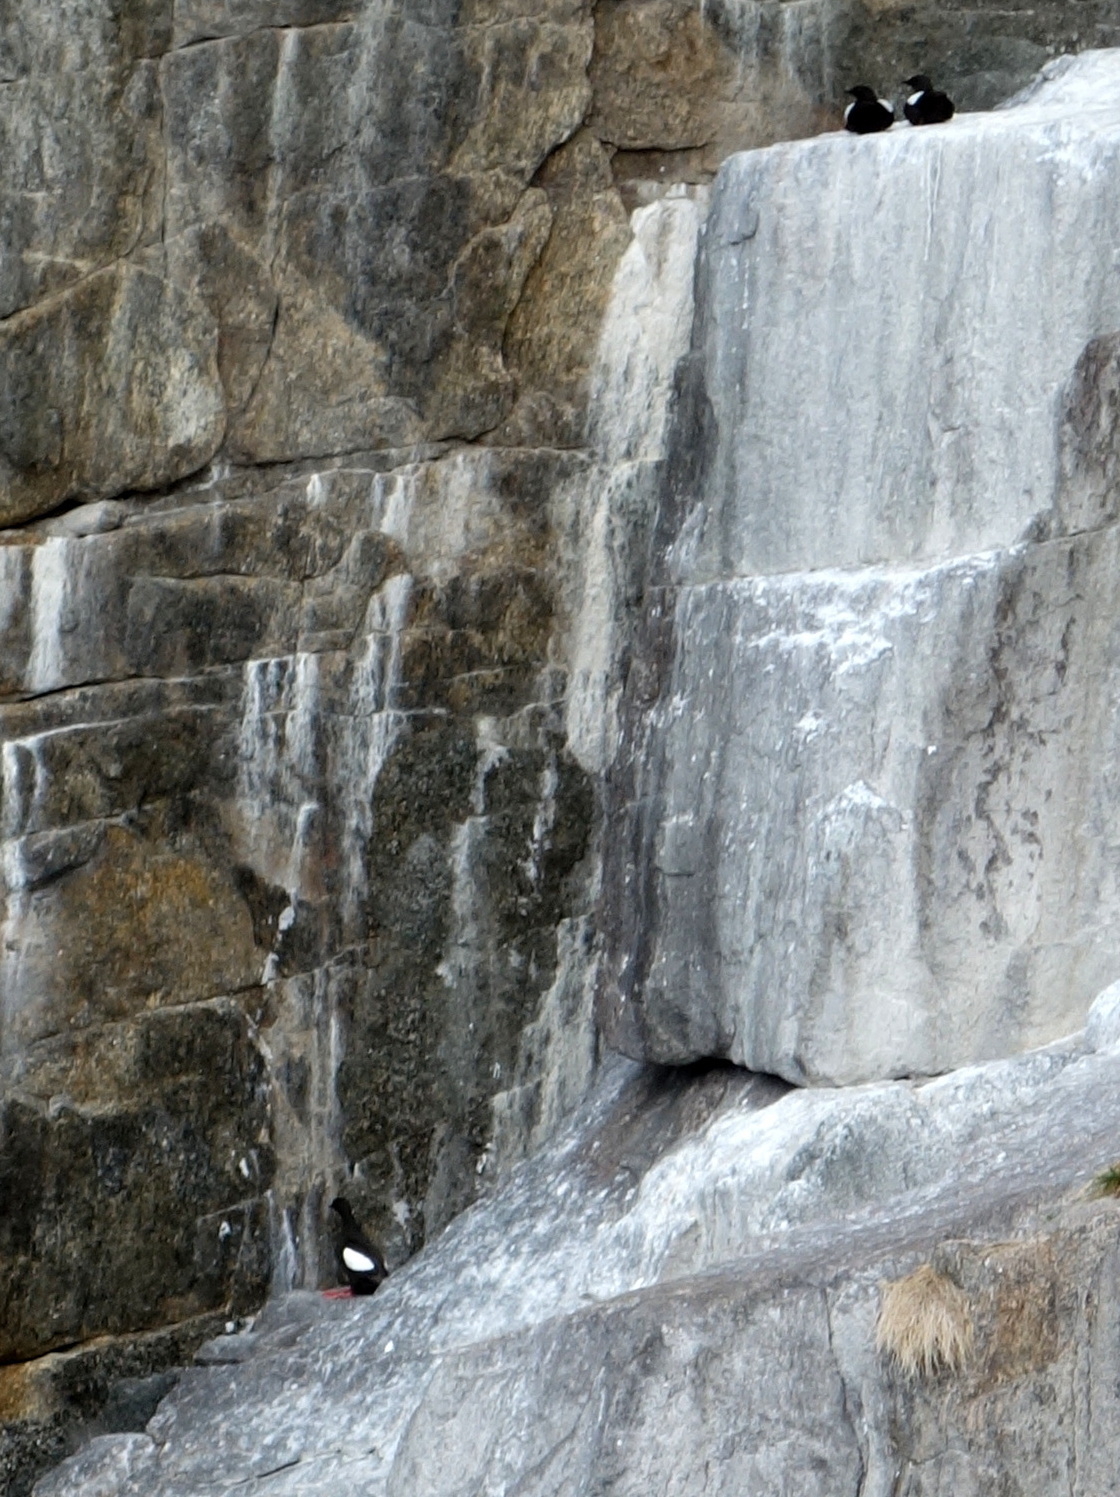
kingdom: Animalia
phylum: Chordata
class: Aves
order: Charadriiformes
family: Alcidae
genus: Cepphus
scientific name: Cepphus grylle
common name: Black guillemot
